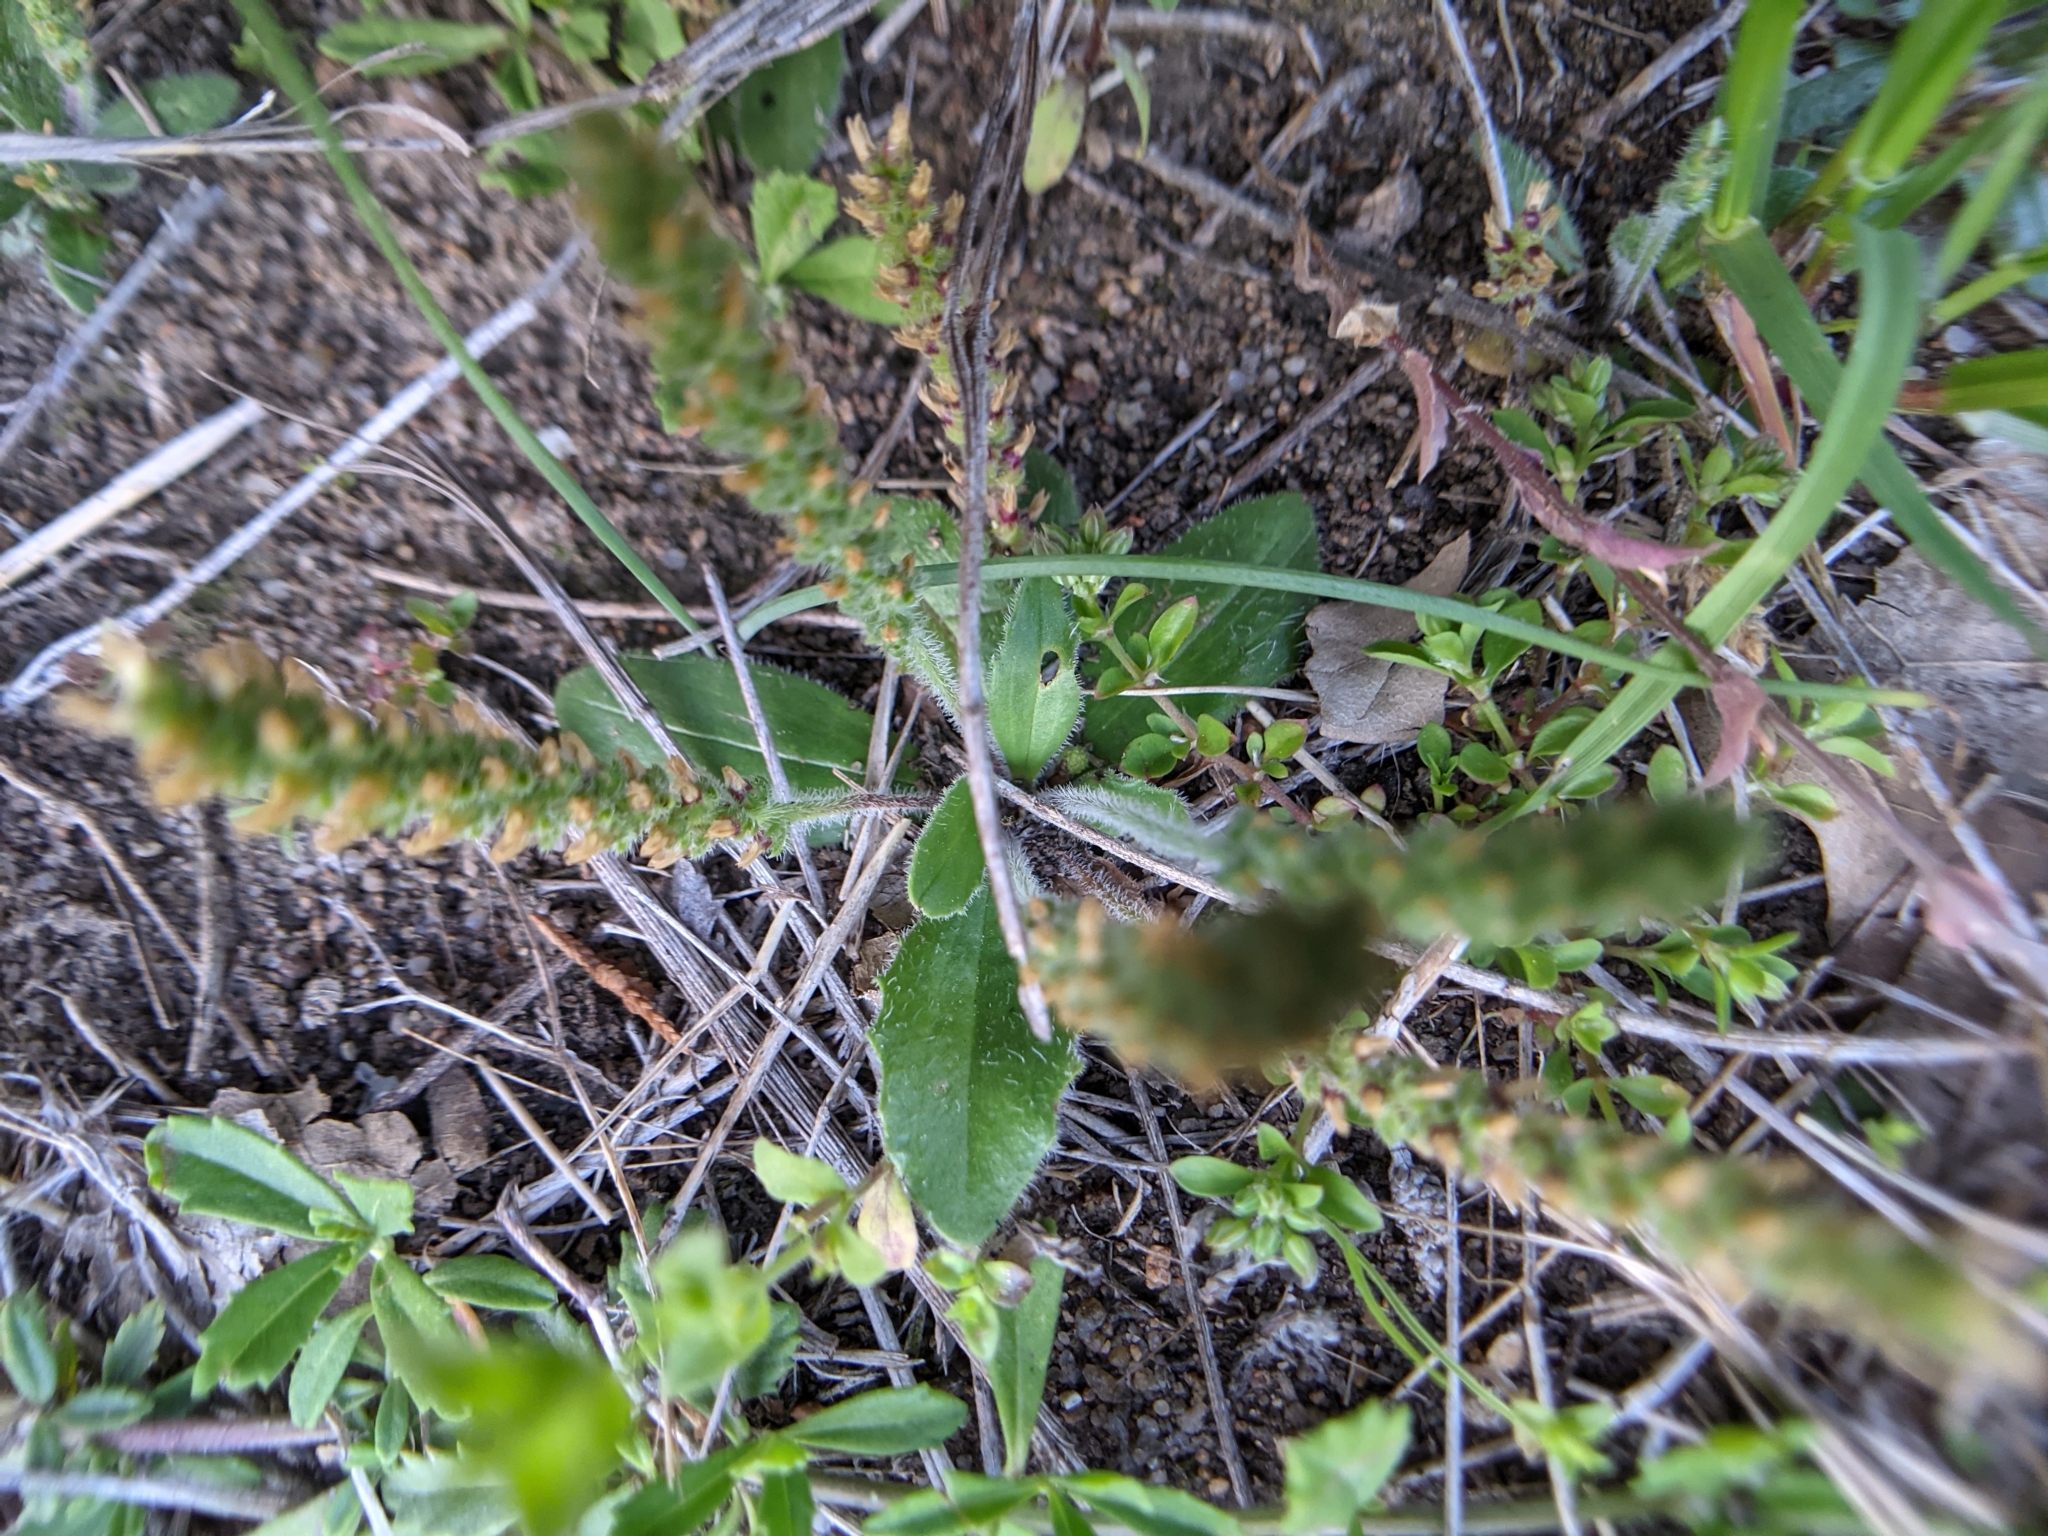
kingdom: Plantae
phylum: Tracheophyta
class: Magnoliopsida
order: Lamiales
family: Plantaginaceae
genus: Plantago
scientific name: Plantago rhodosperma
